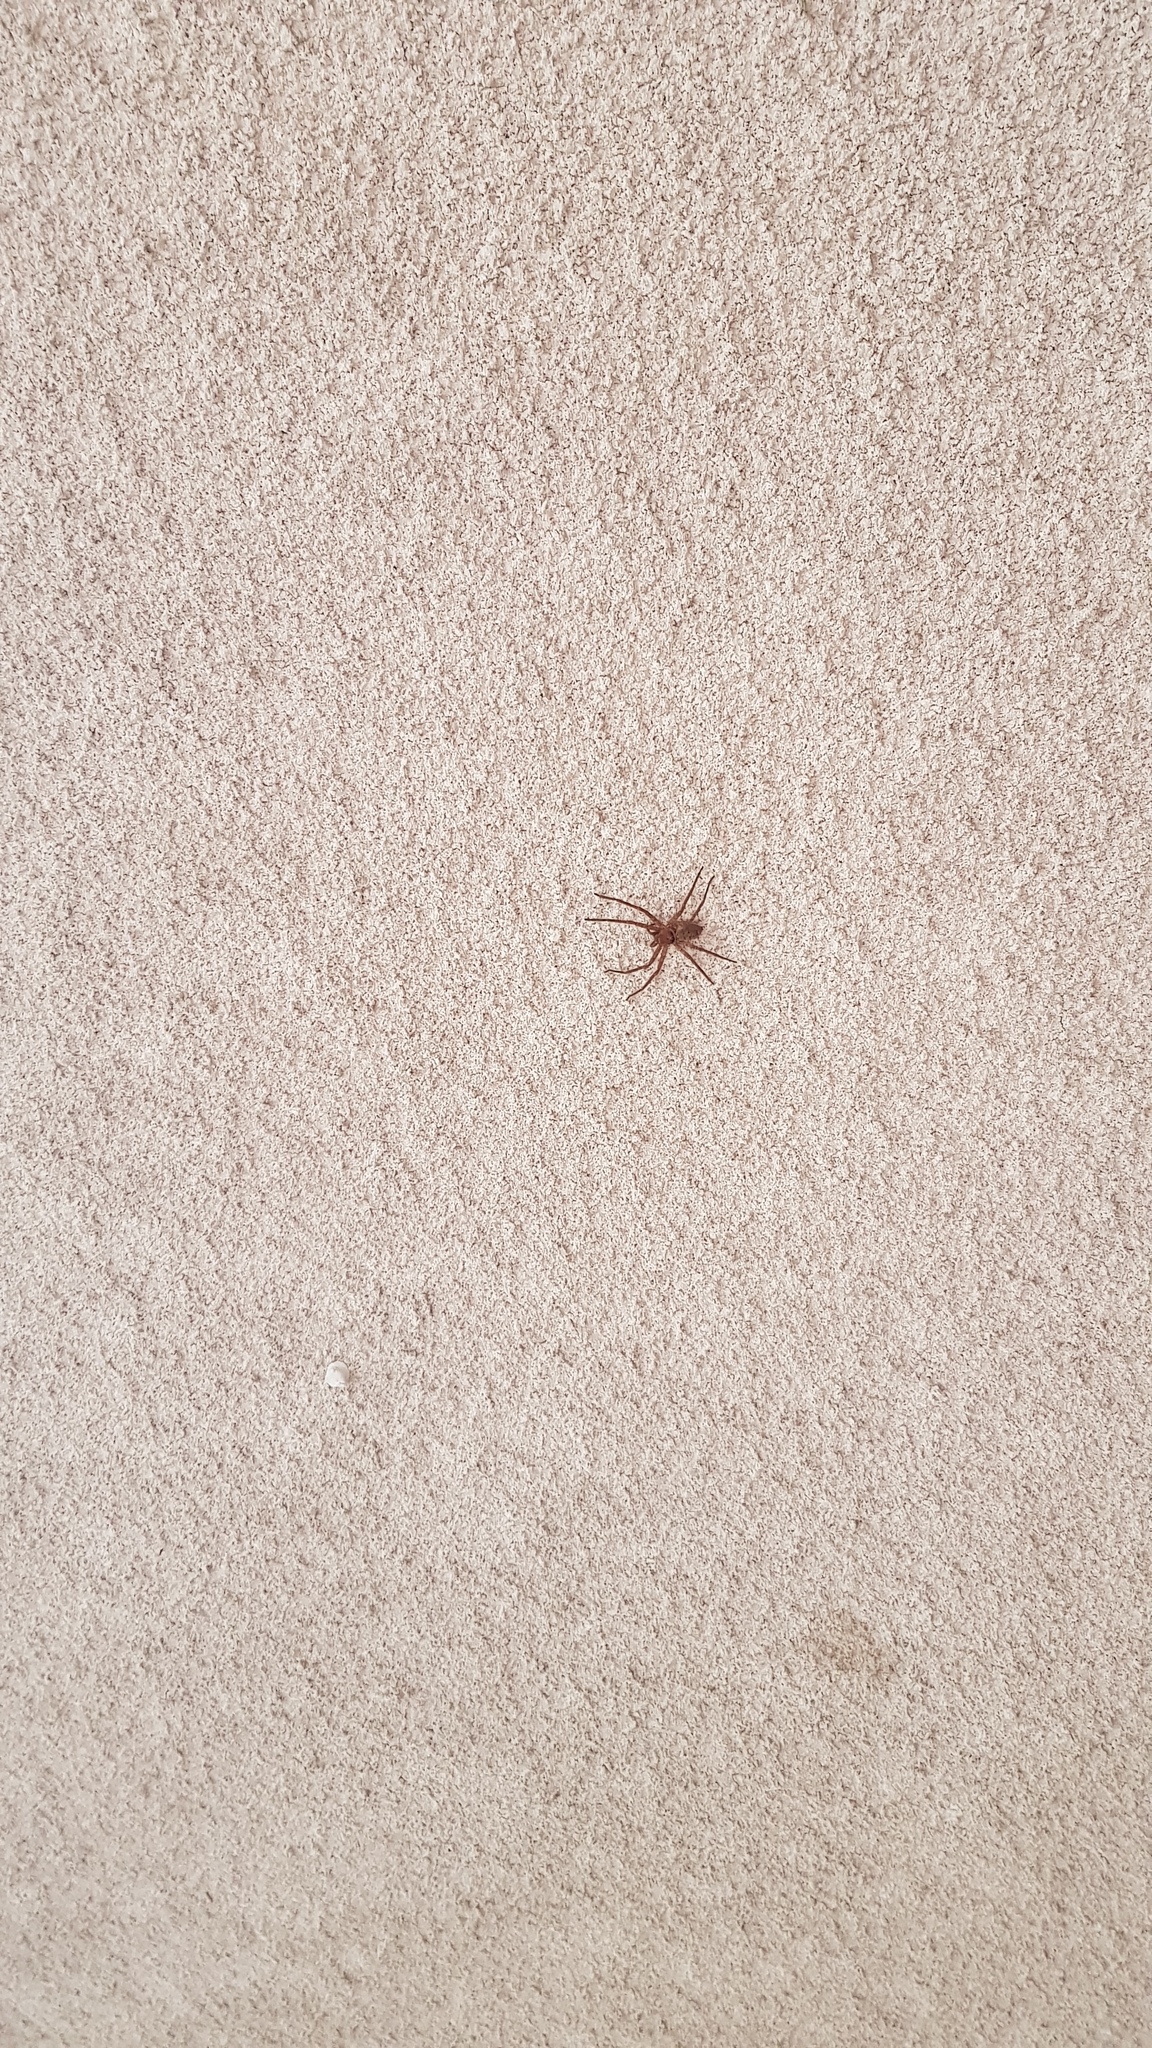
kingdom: Animalia
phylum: Arthropoda
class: Arachnida
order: Araneae
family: Sparassidae
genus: Heteropoda
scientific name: Heteropoda jugulans
